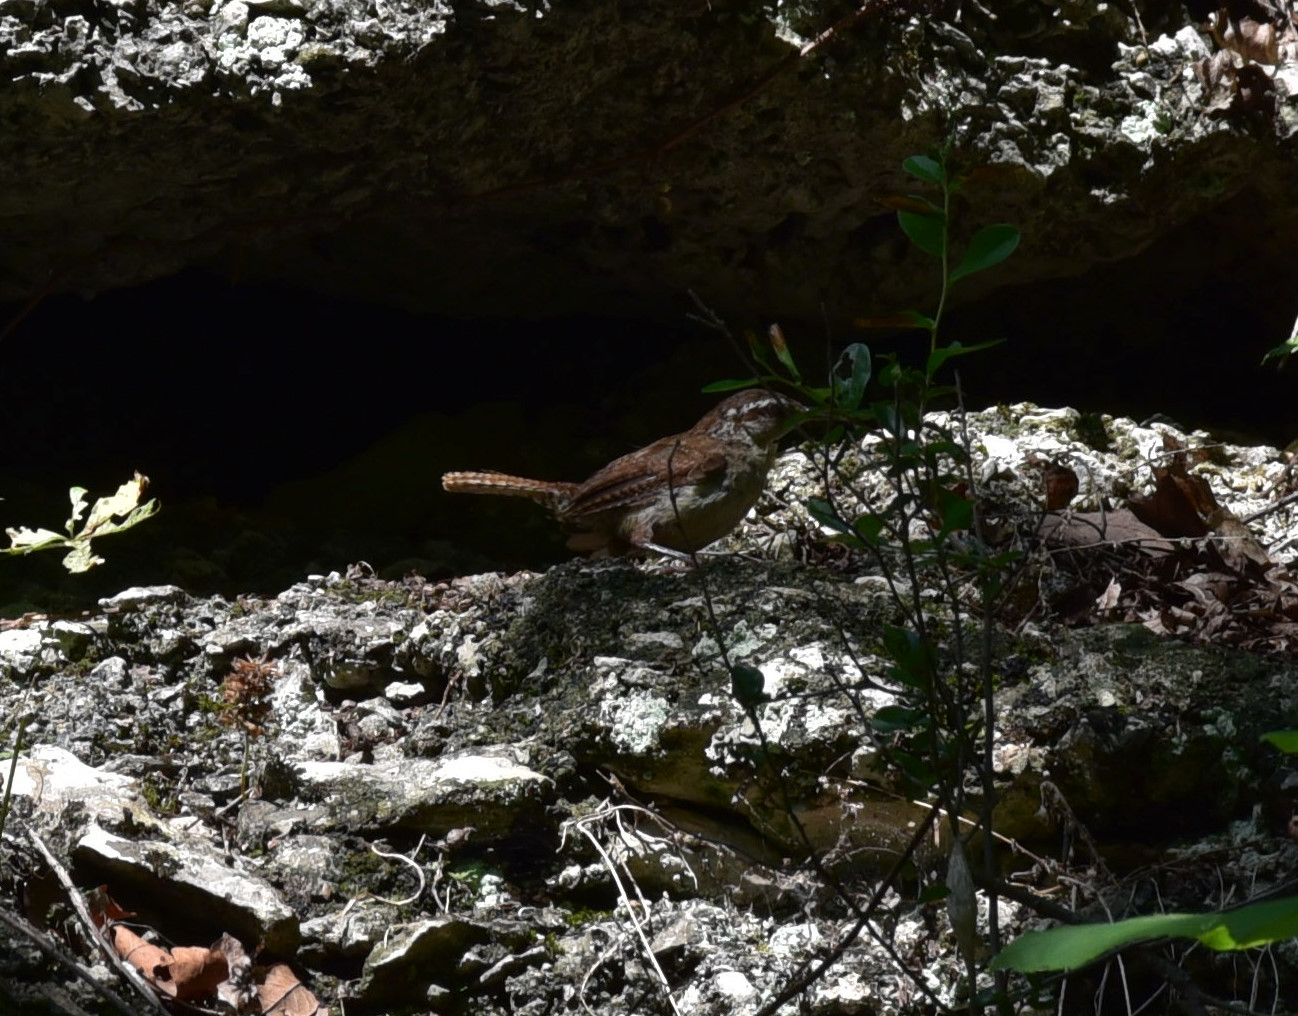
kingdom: Animalia
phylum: Chordata
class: Aves
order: Passeriformes
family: Troglodytidae
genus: Thryothorus
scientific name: Thryothorus ludovicianus
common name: Carolina wren
